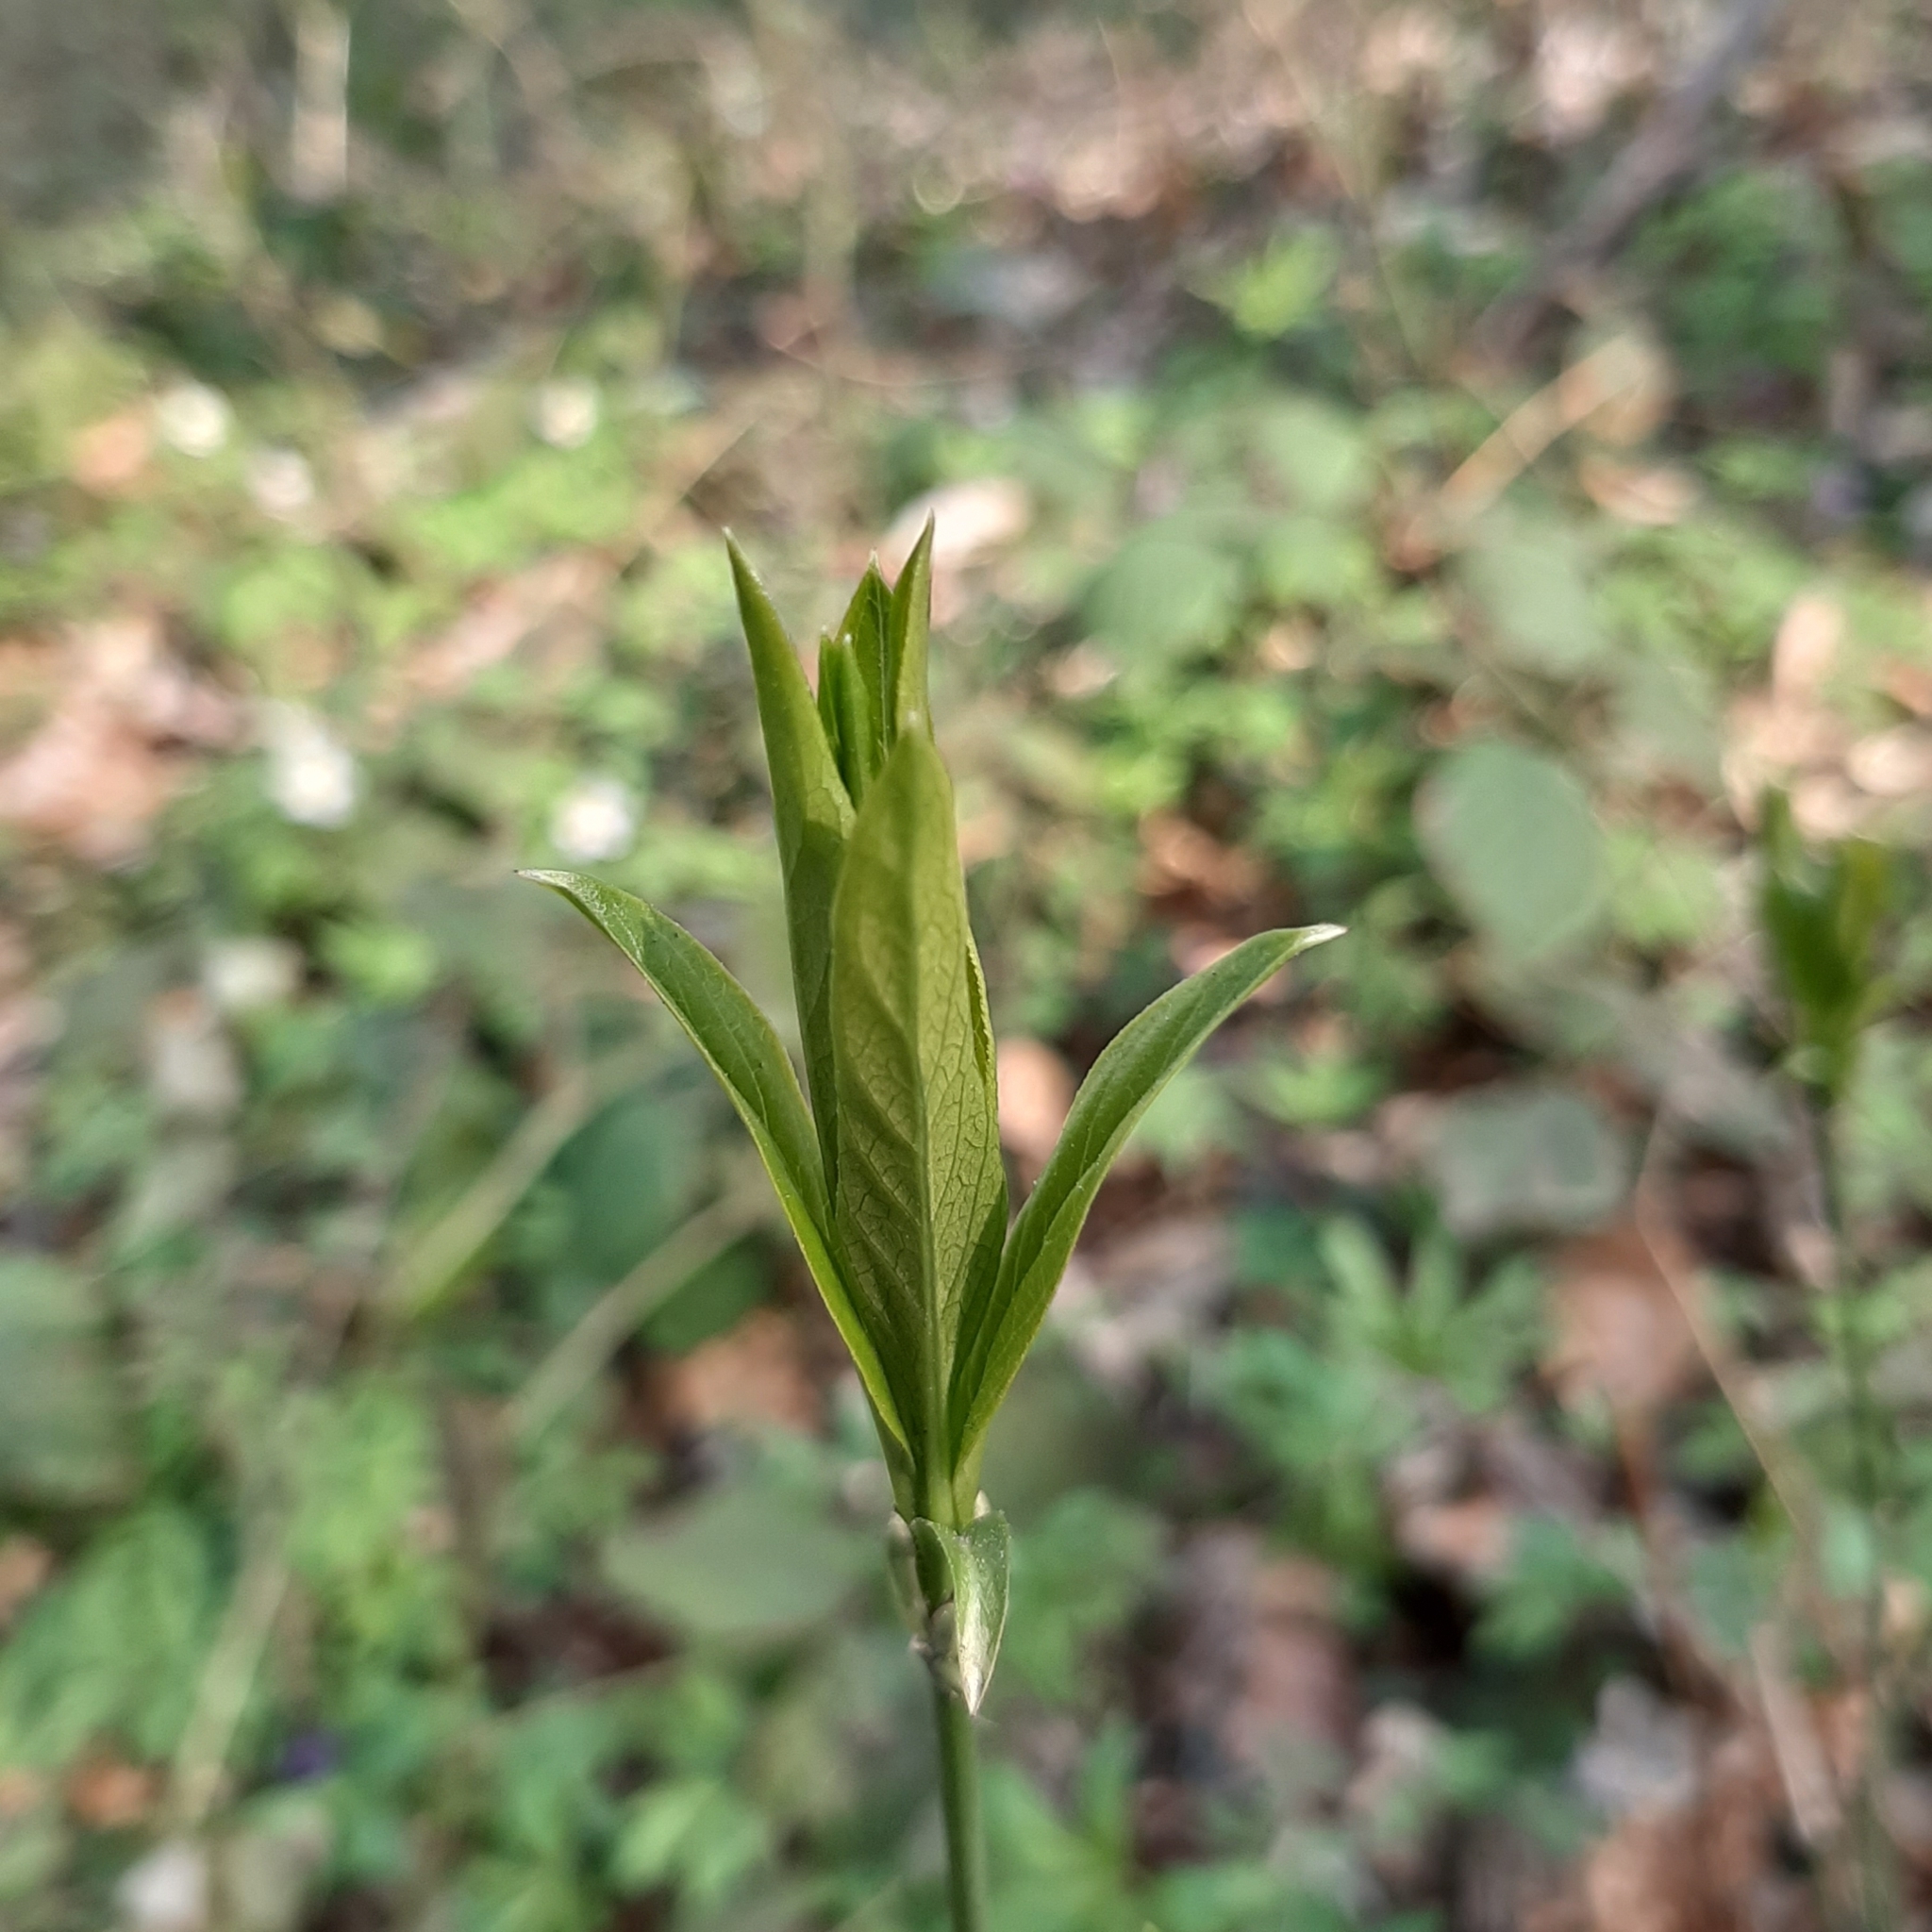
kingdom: Plantae
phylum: Tracheophyta
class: Magnoliopsida
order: Celastrales
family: Celastraceae
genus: Euonymus
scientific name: Euonymus europaeus
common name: Spindle
